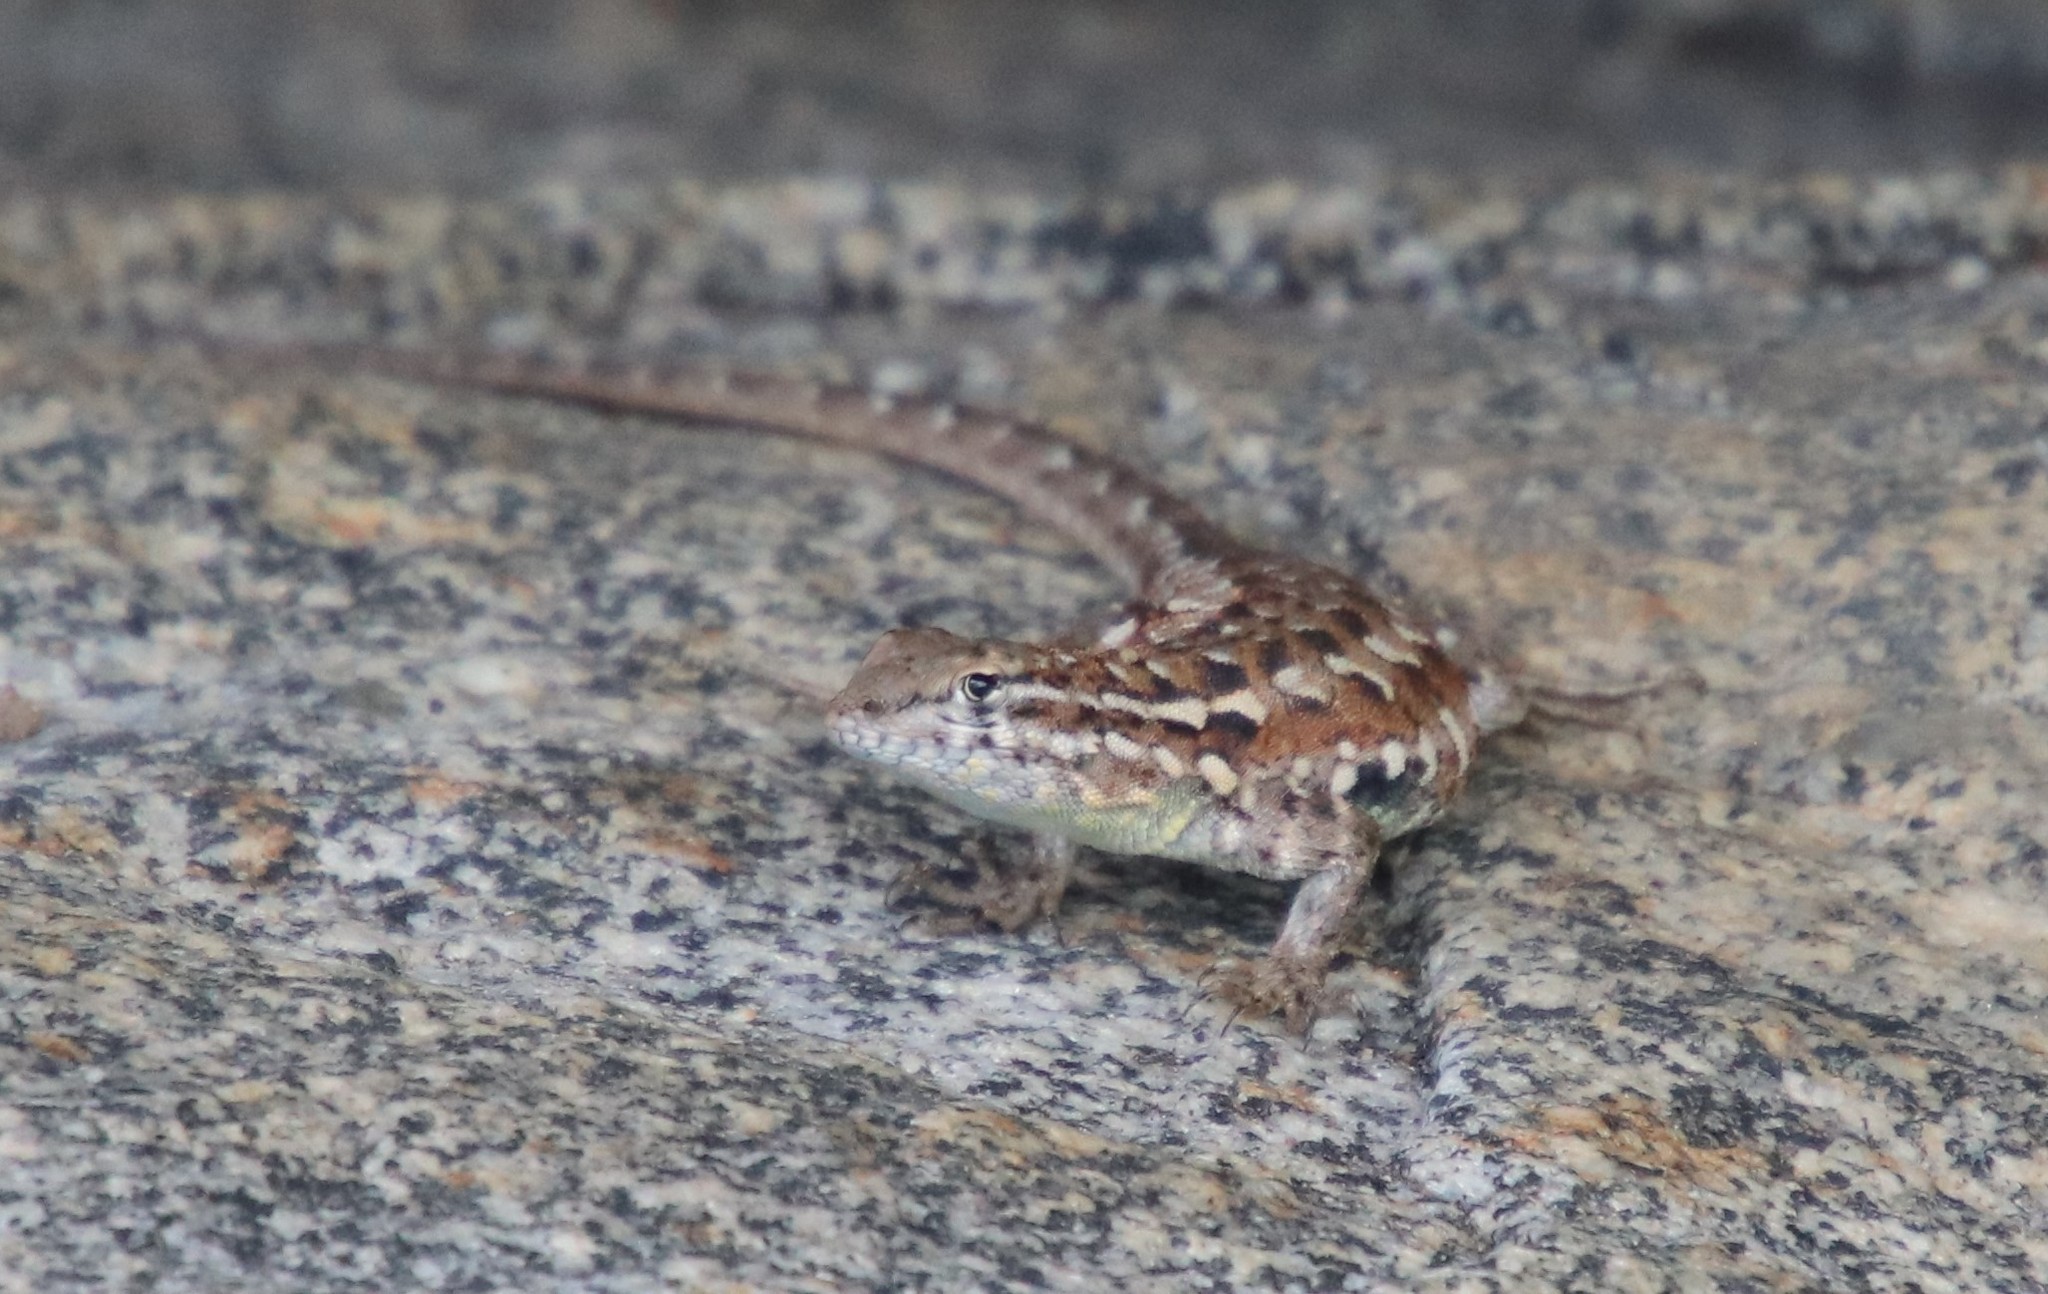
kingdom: Animalia
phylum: Chordata
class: Squamata
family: Phrynosomatidae
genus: Uta
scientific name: Uta stansburiana
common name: Side-blotched lizard
